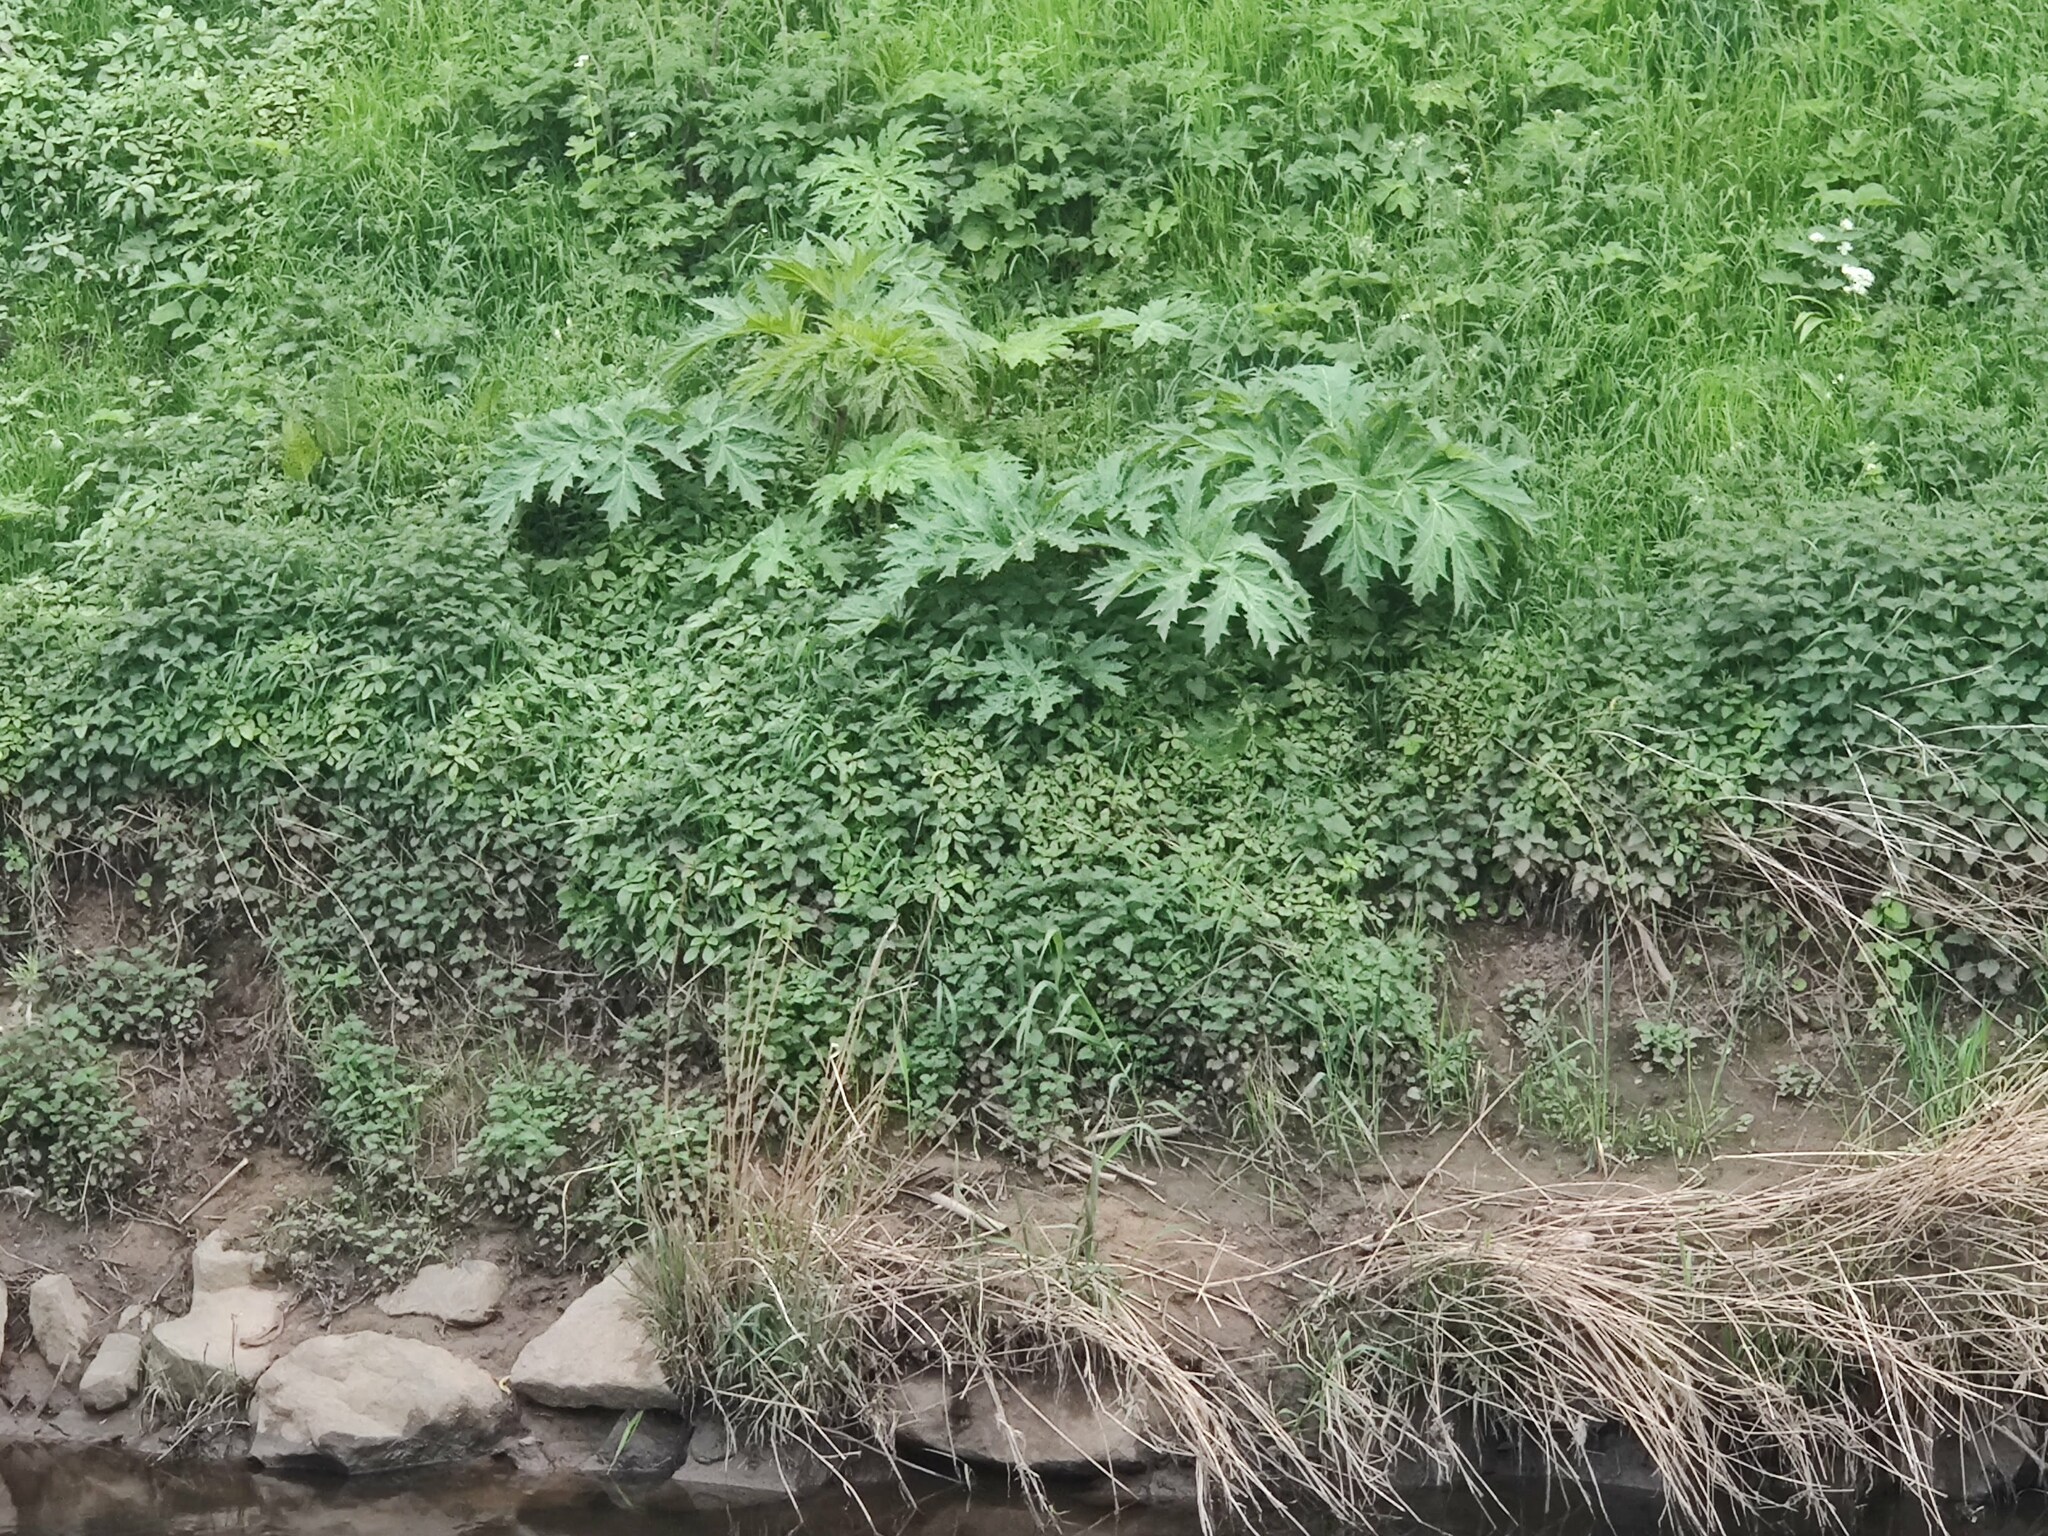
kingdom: Plantae
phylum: Tracheophyta
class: Magnoliopsida
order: Apiales
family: Apiaceae
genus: Heracleum
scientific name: Heracleum mantegazzianum
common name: Giant hogweed
